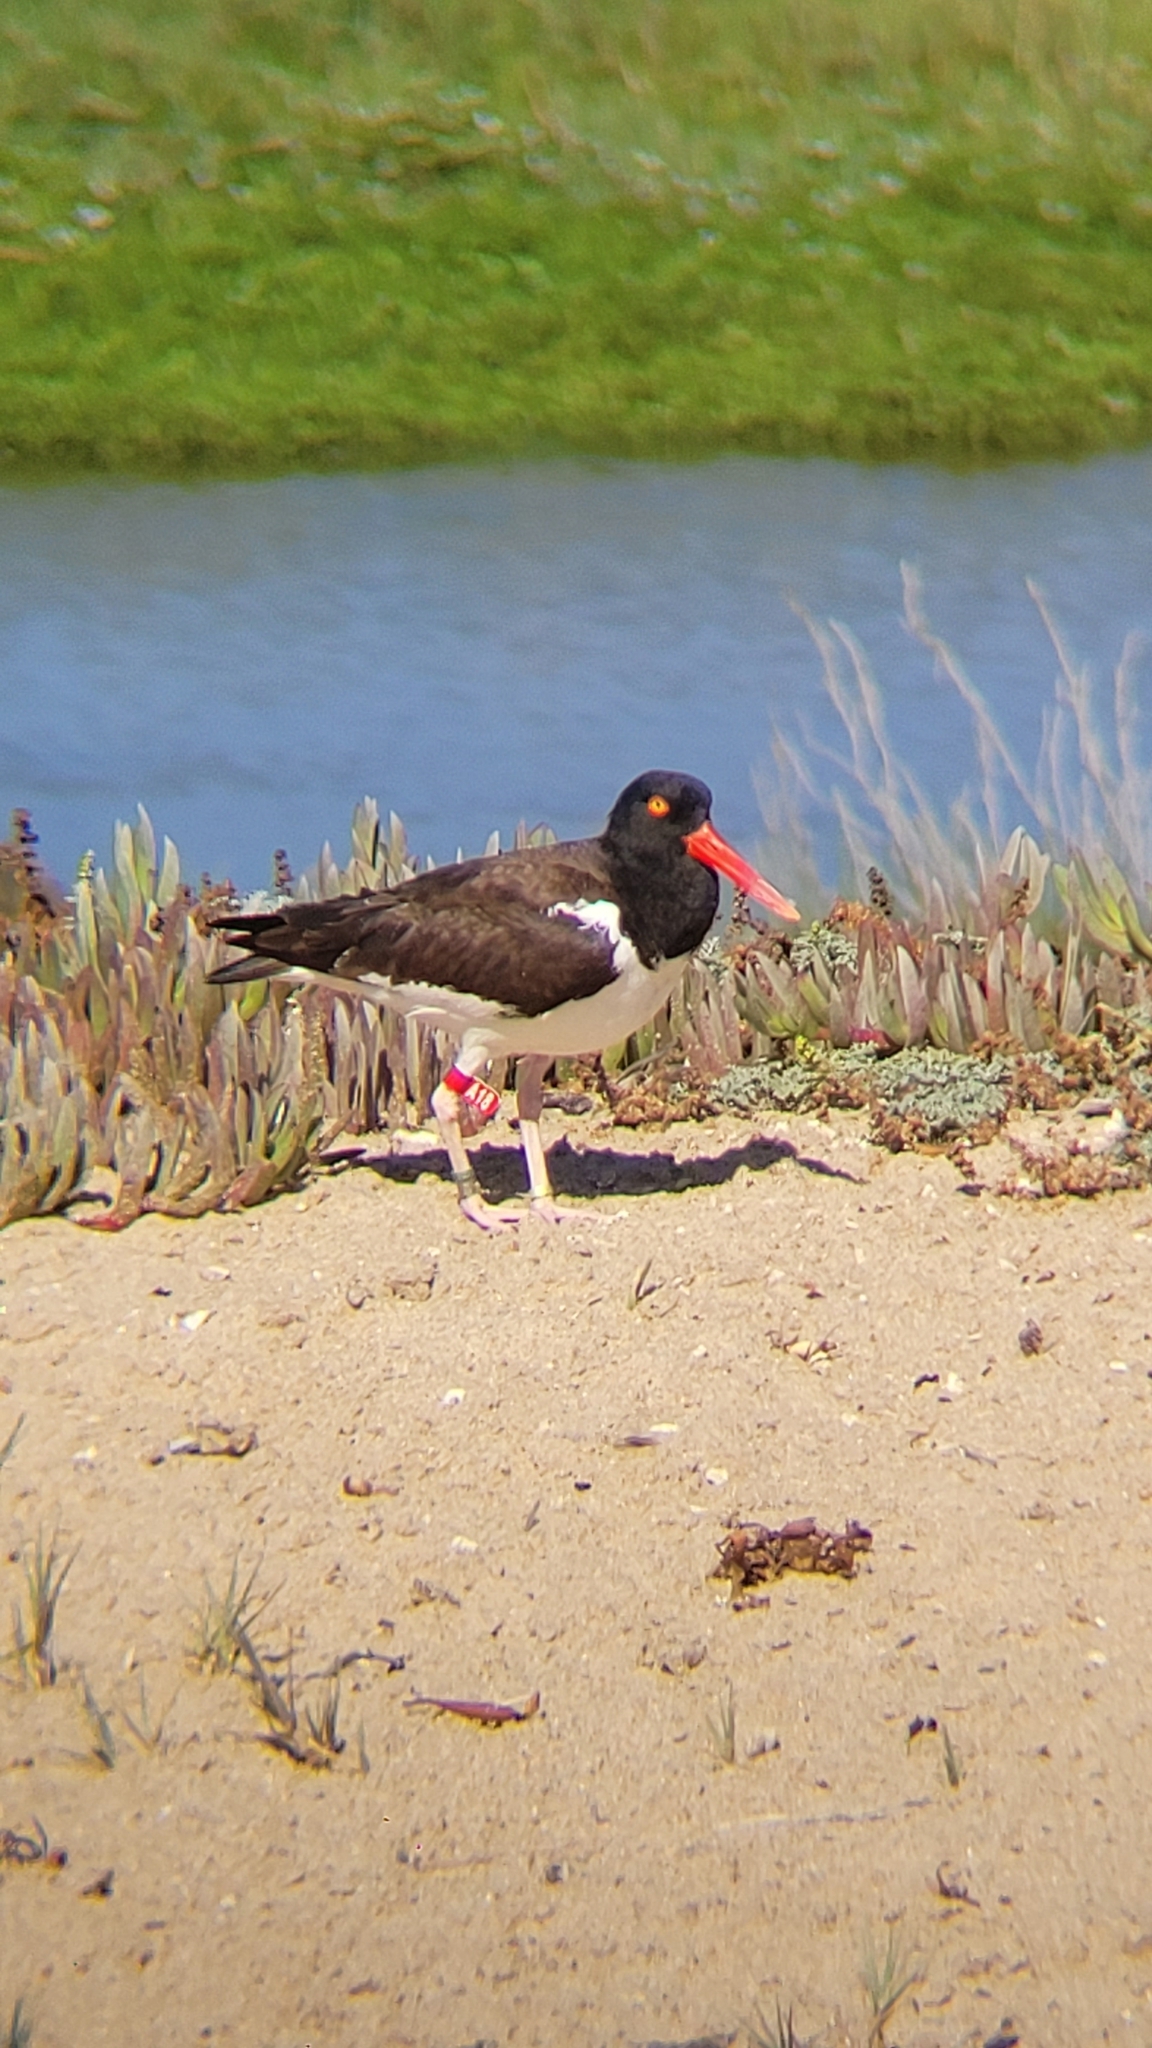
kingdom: Animalia
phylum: Chordata
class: Aves
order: Charadriiformes
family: Haematopodidae
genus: Haematopus
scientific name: Haematopus palliatus
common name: American oystercatcher
